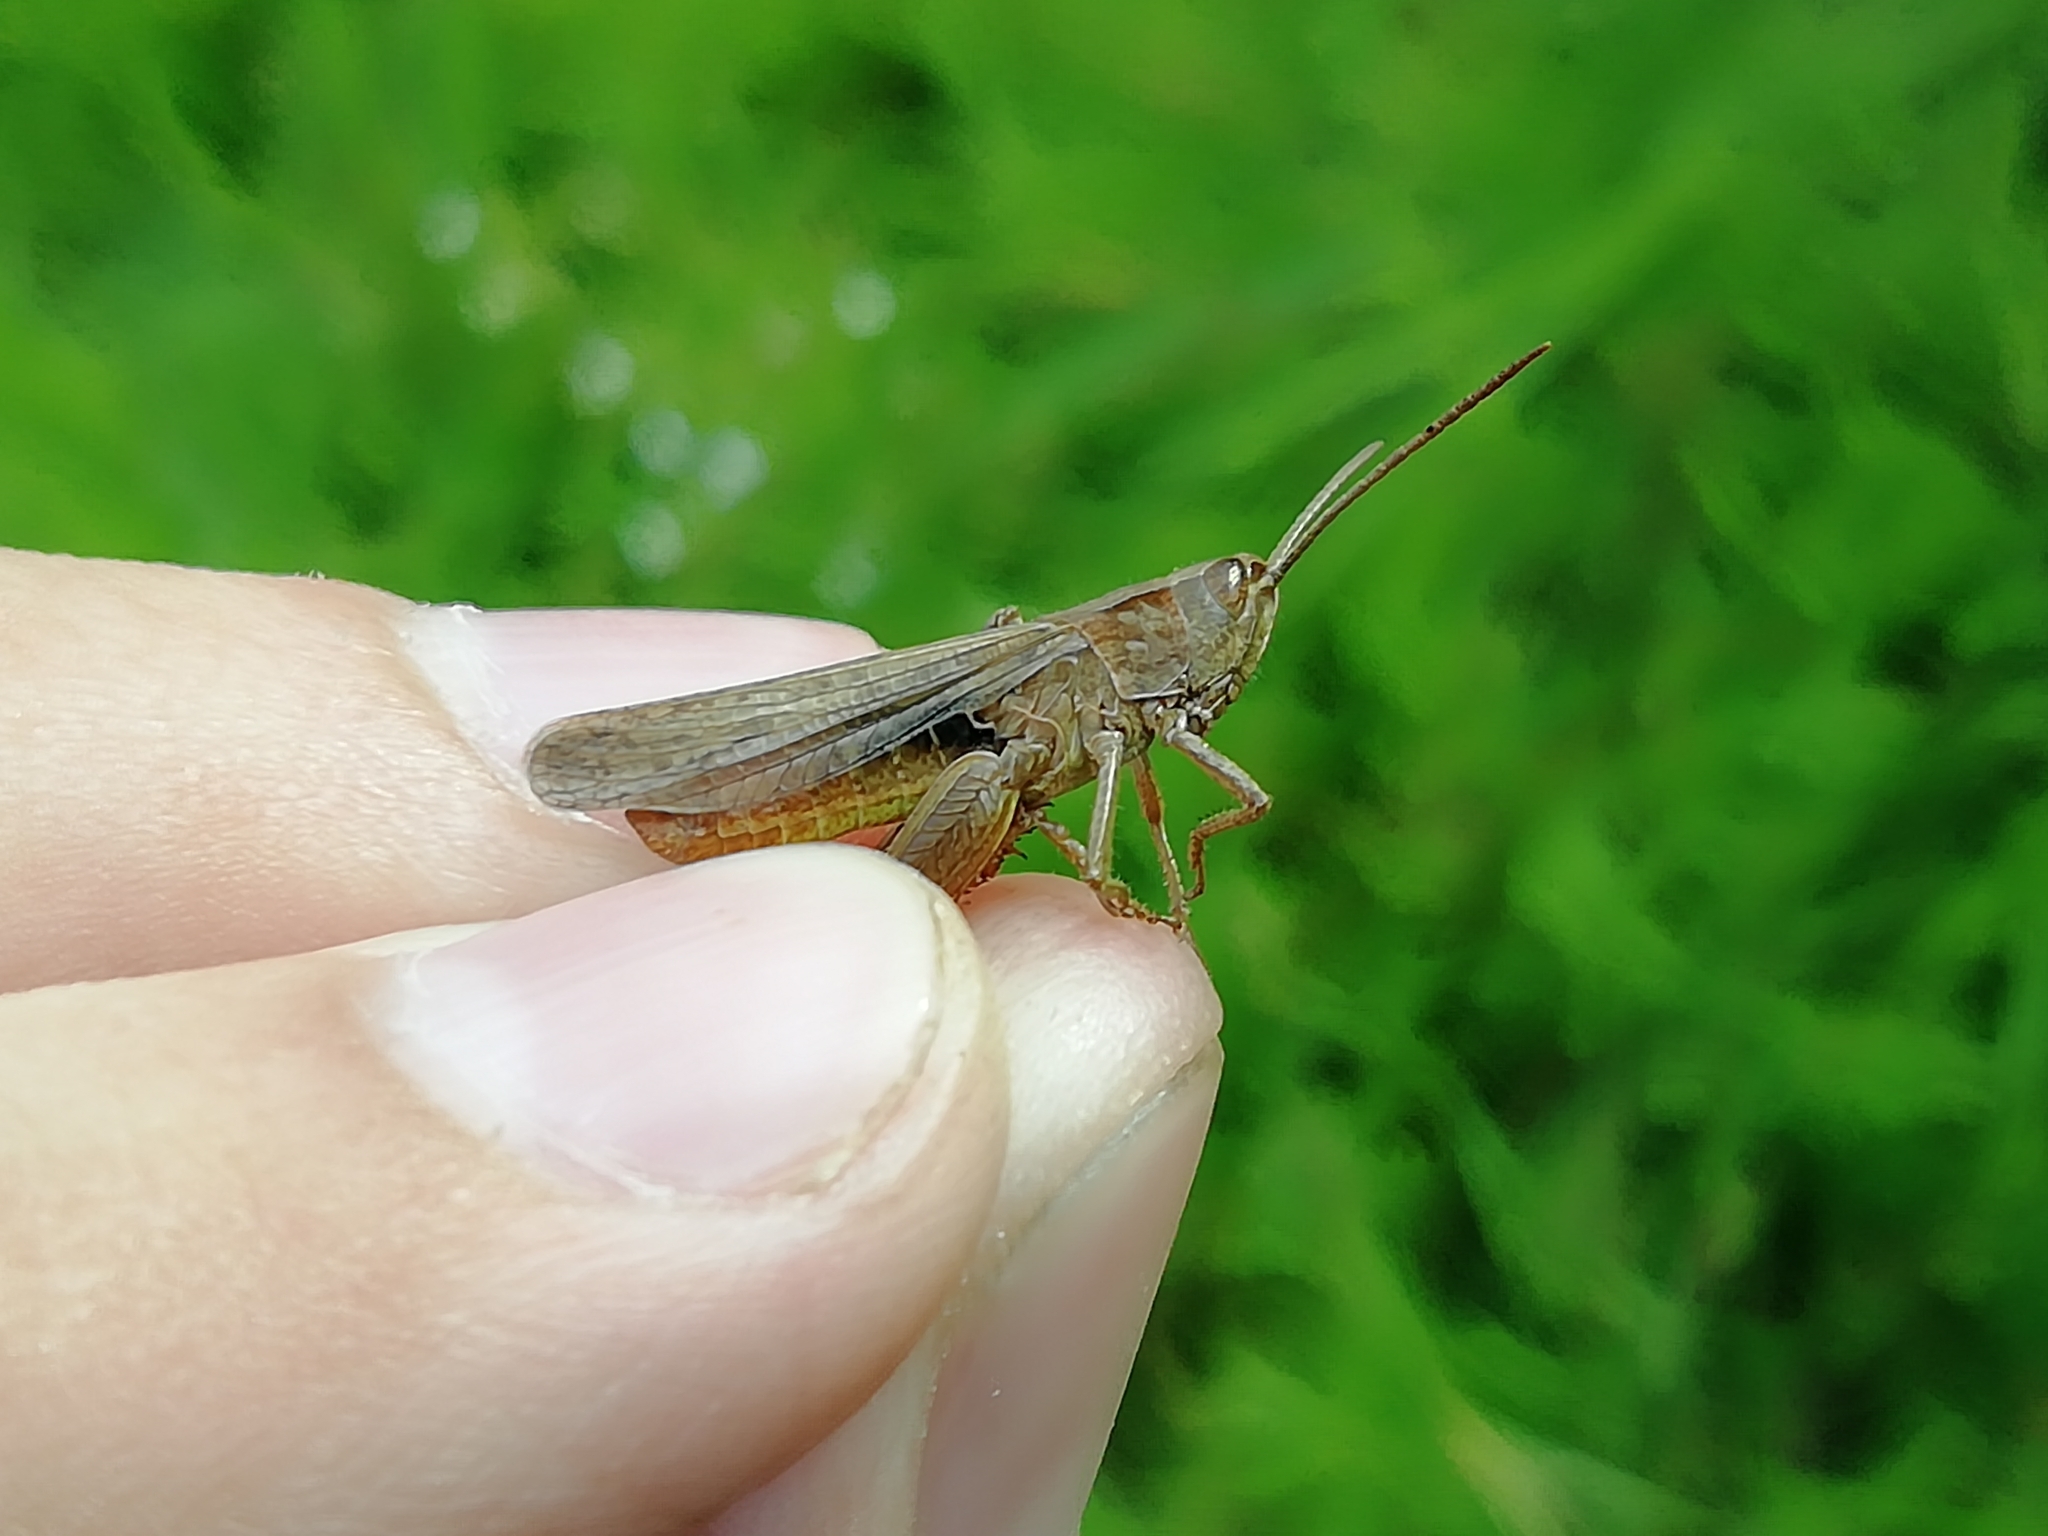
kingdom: Animalia
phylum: Arthropoda
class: Insecta
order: Orthoptera
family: Acrididae
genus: Chorthippus
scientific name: Chorthippus dorsatus
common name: Steppe grasshopper
